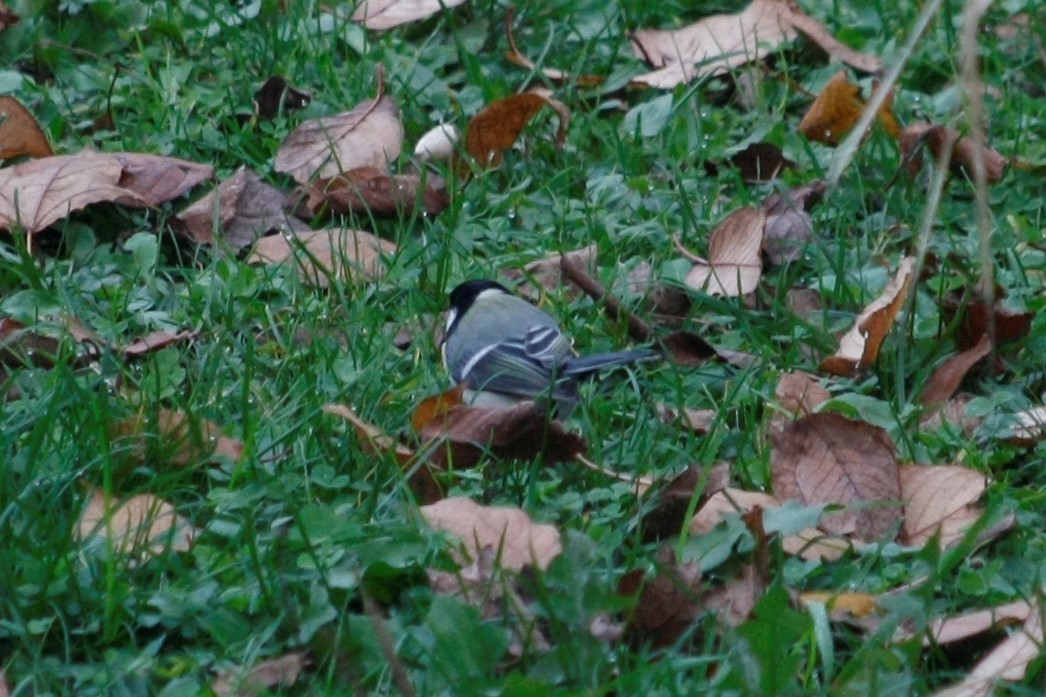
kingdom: Animalia
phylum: Chordata
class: Aves
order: Passeriformes
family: Paridae
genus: Parus
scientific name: Parus major
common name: Great tit
